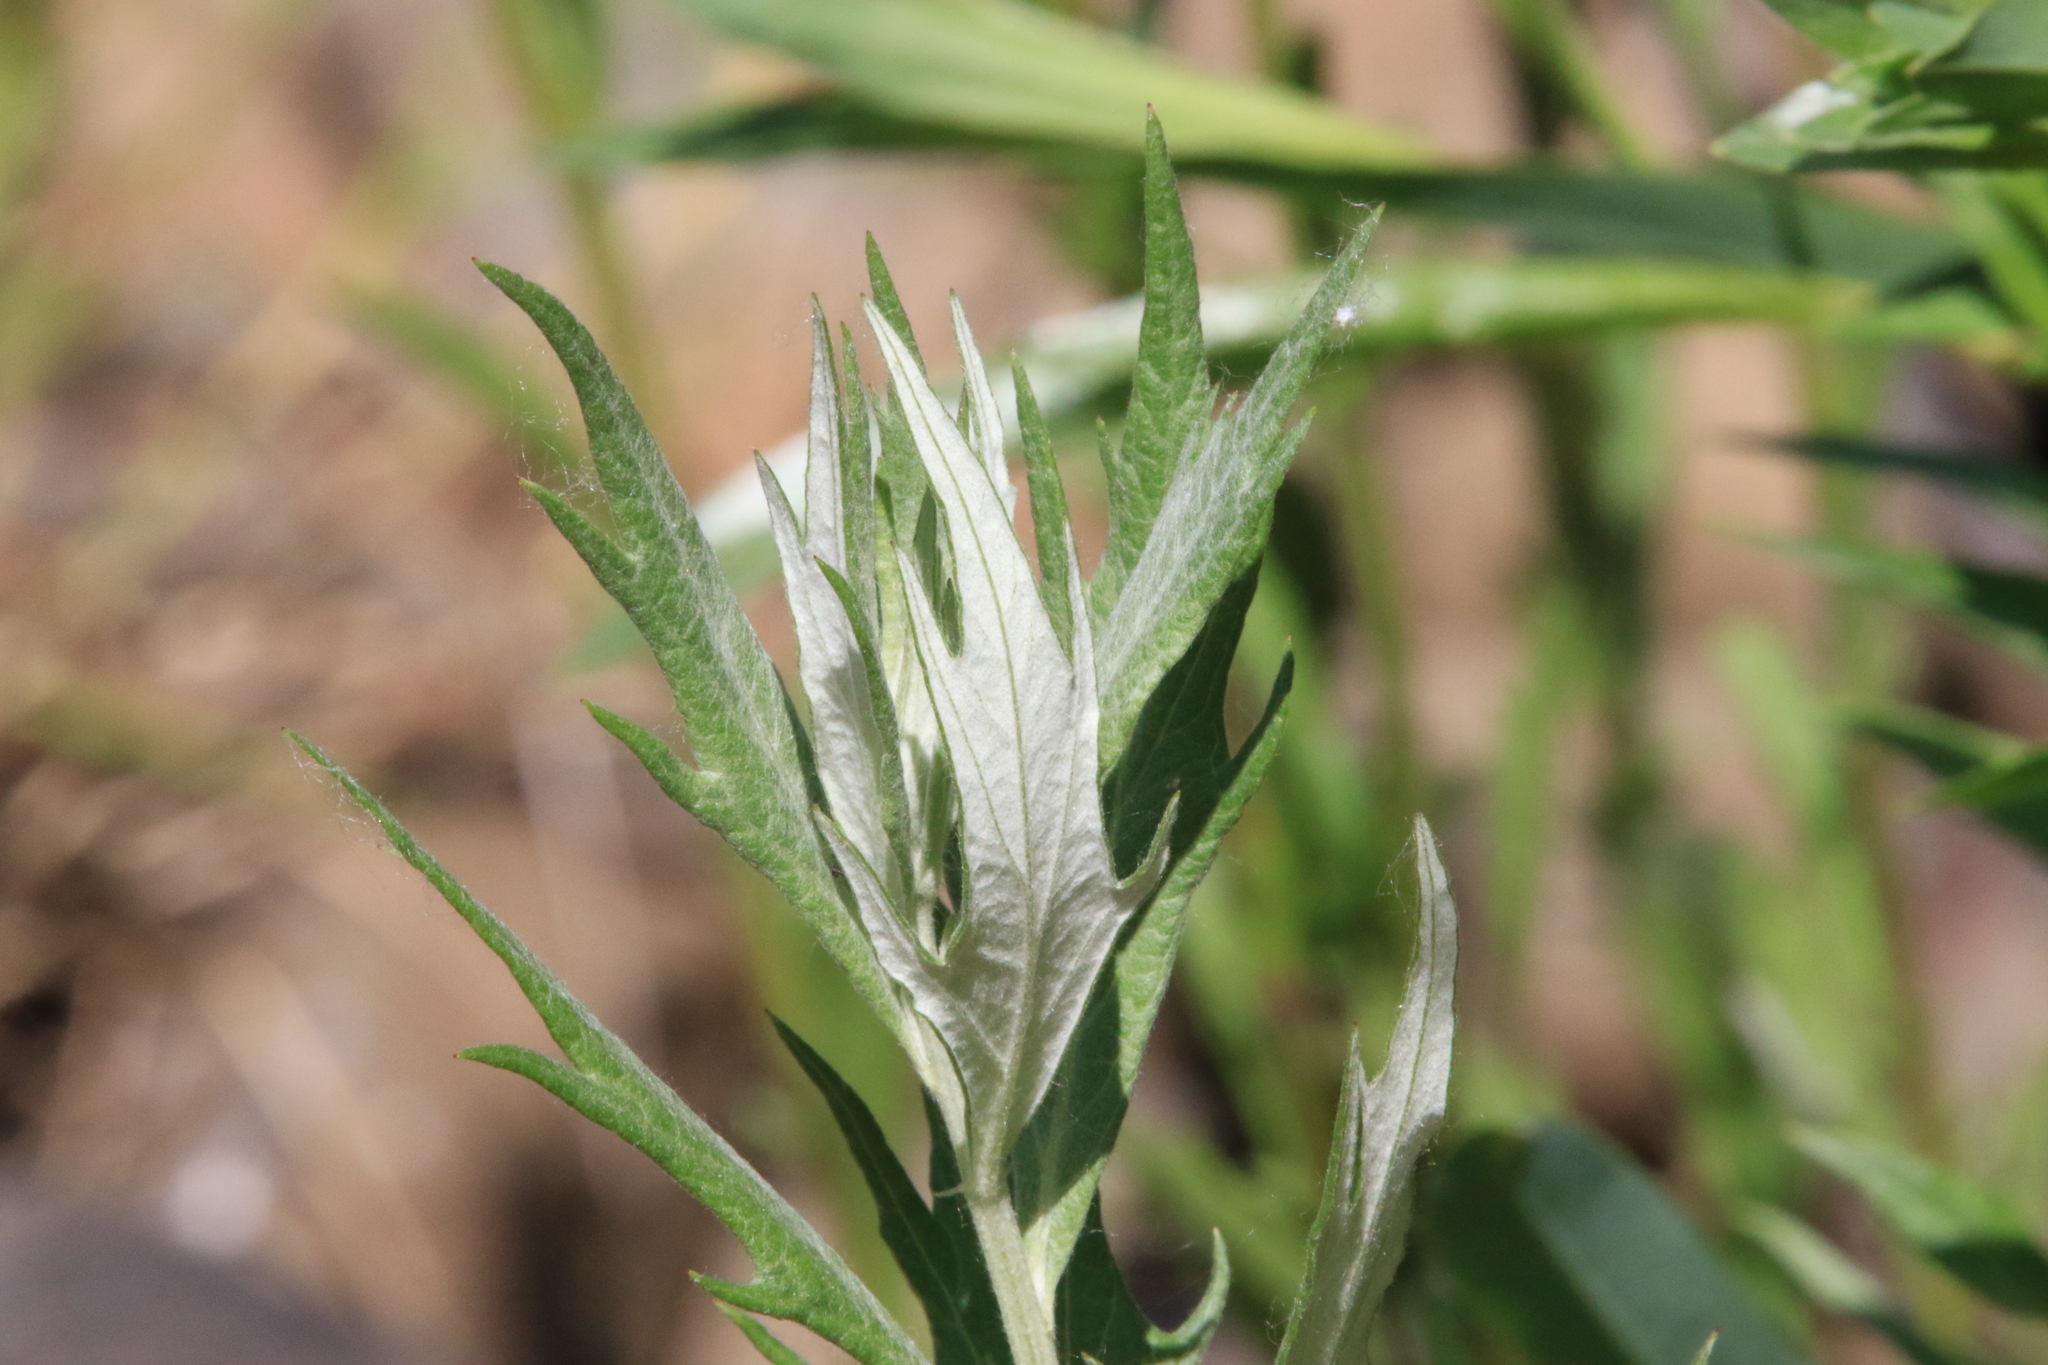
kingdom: Plantae
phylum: Tracheophyta
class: Magnoliopsida
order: Asterales
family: Asteraceae
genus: Artemisia
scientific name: Artemisia douglasiana
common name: Northwest mugwort
